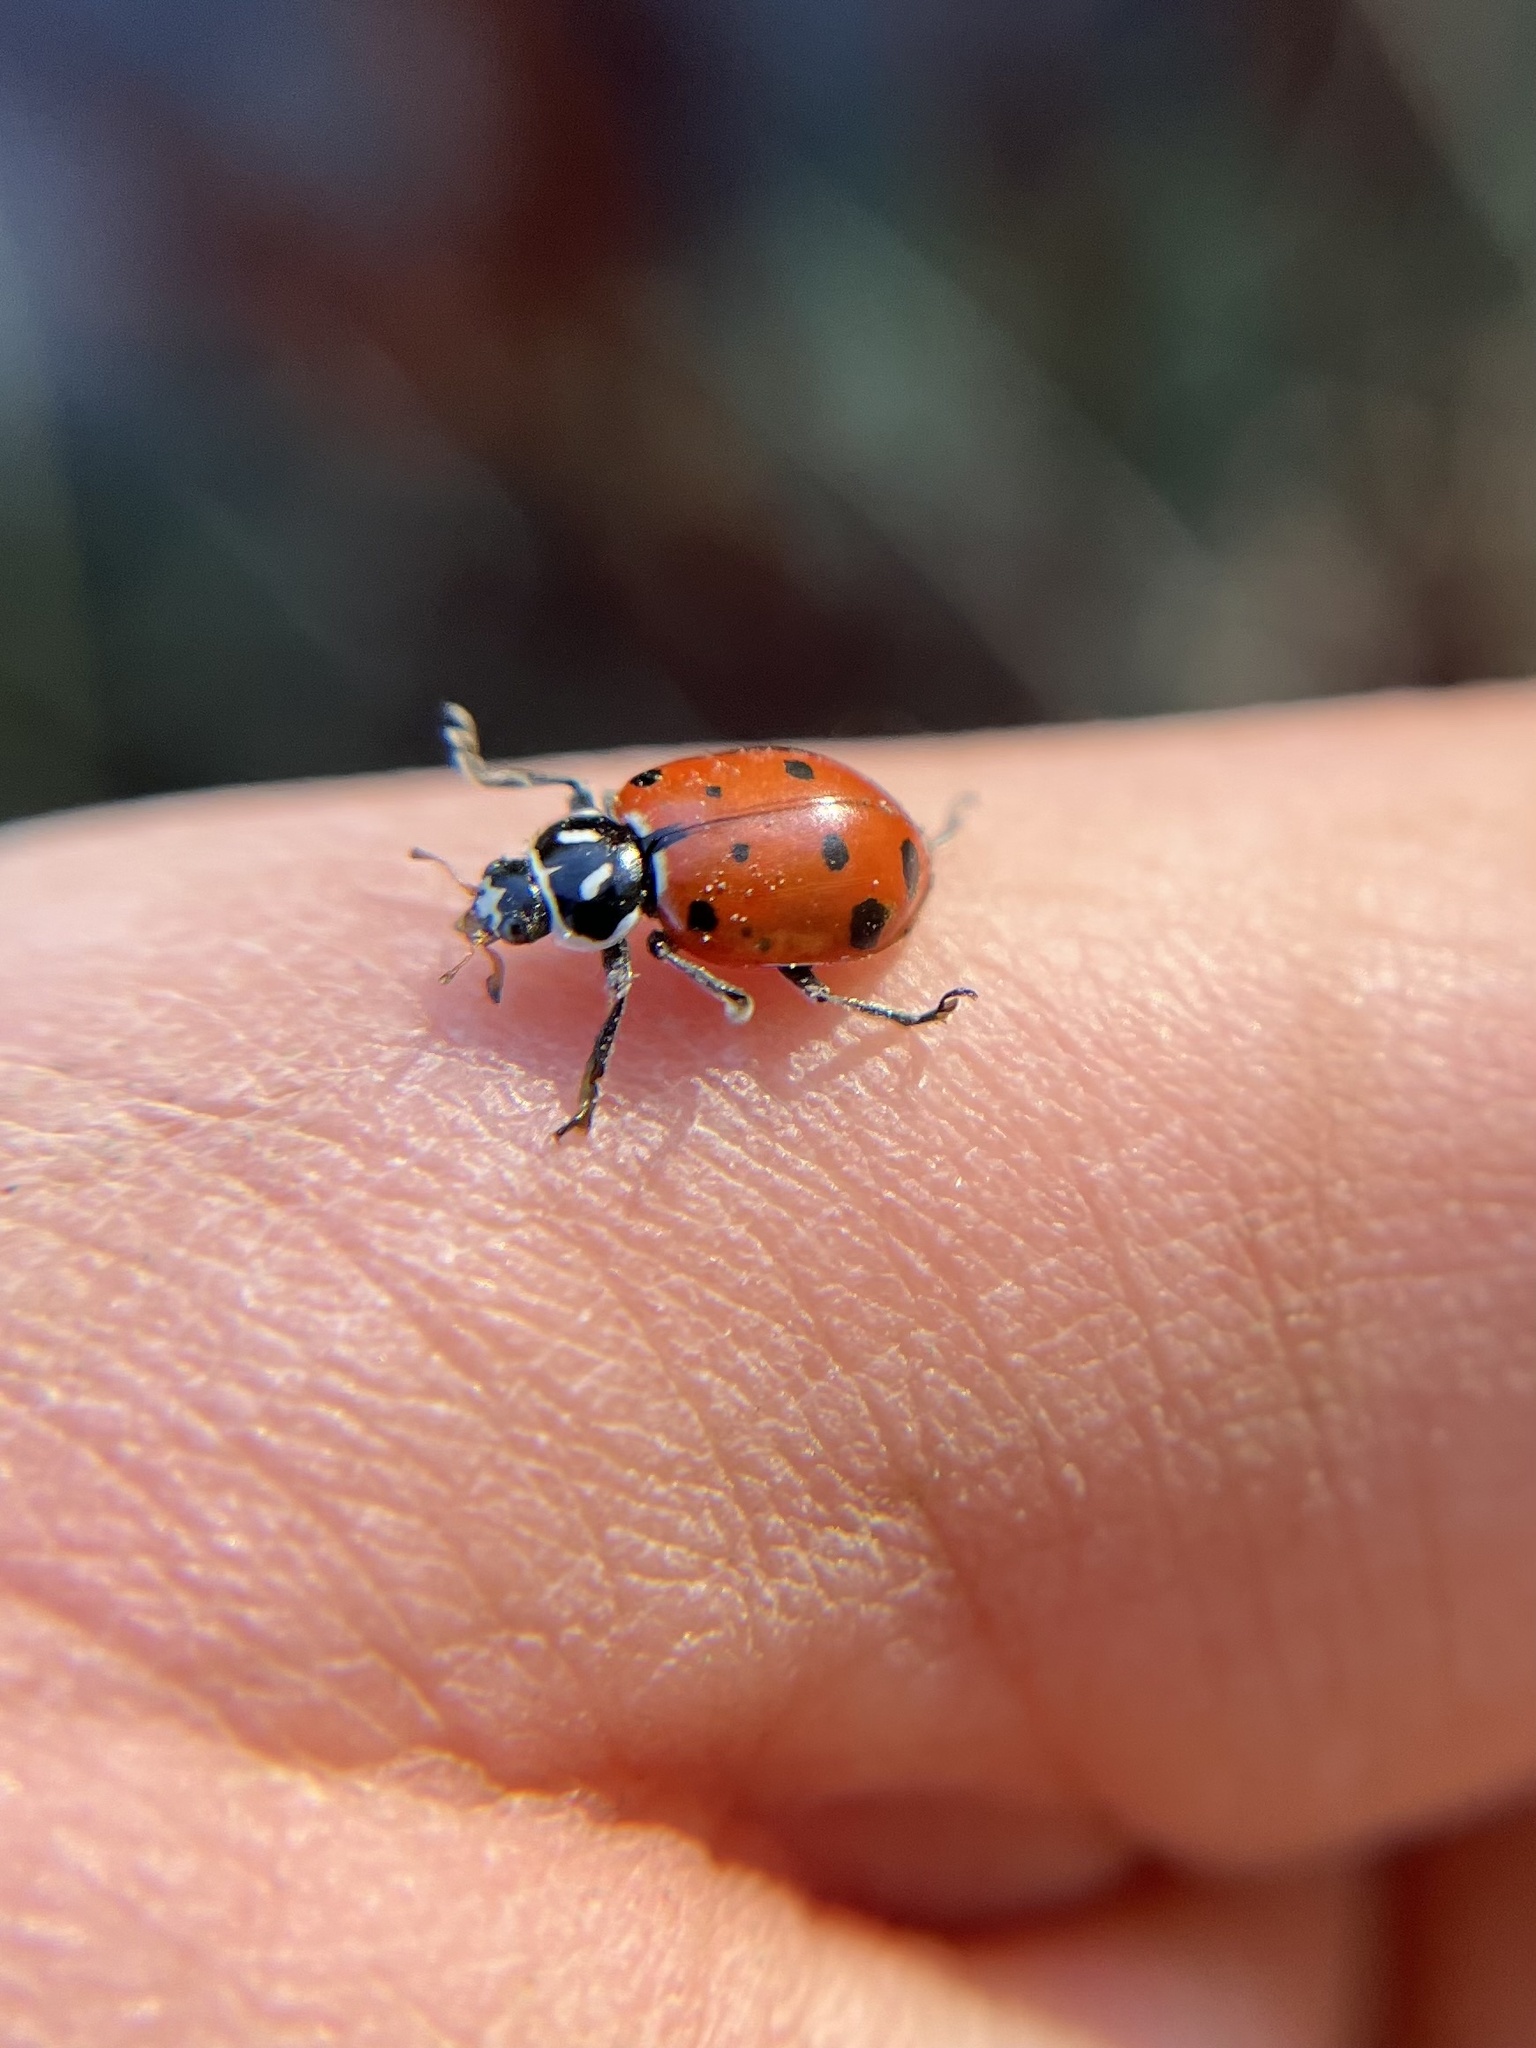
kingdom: Animalia
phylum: Arthropoda
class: Insecta
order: Coleoptera
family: Coccinellidae
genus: Hippodamia
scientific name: Hippodamia convergens
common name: Convergent lady beetle
